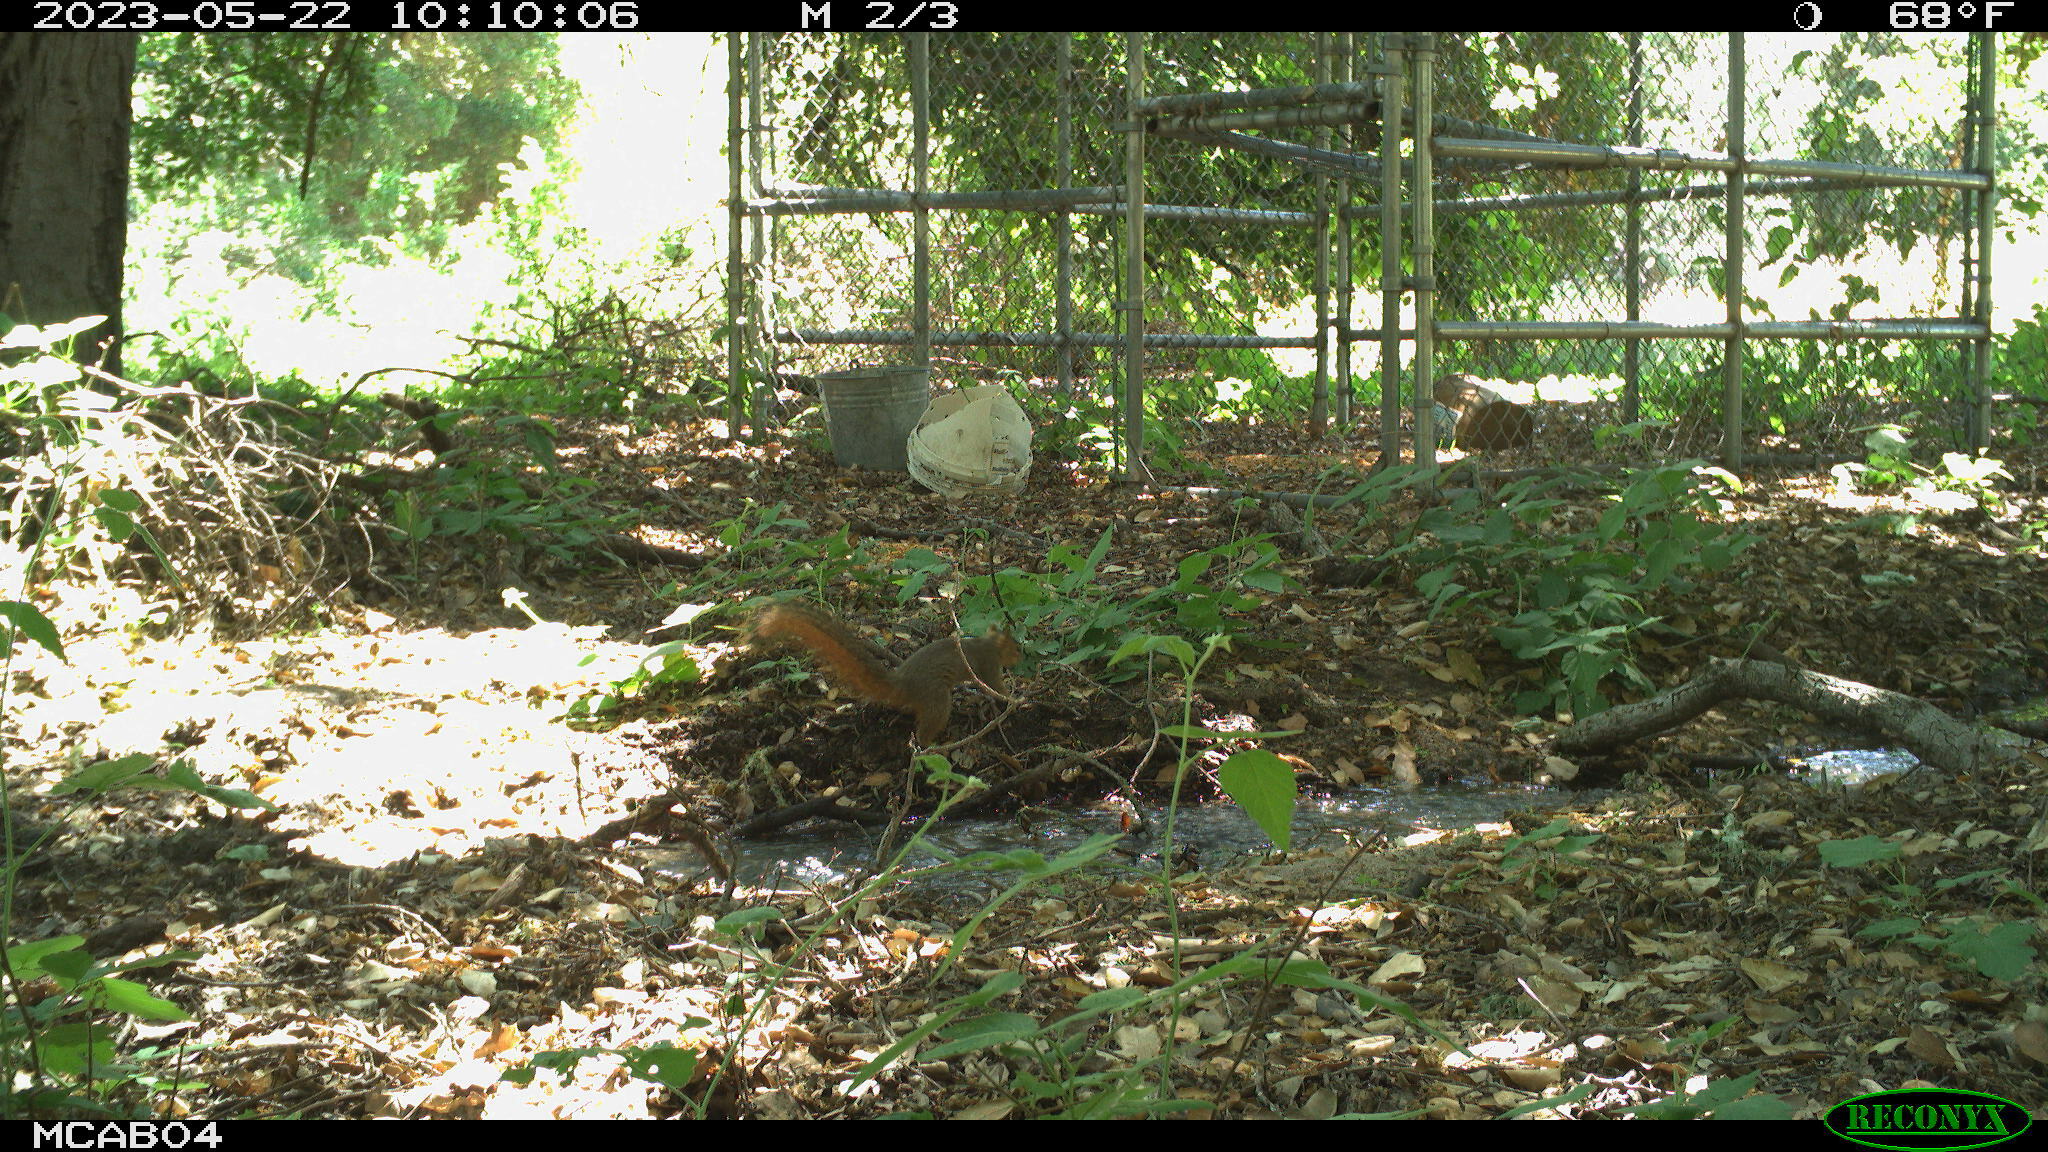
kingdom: Animalia
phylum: Chordata
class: Mammalia
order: Rodentia
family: Sciuridae
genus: Sciurus
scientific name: Sciurus niger
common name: Fox squirrel
